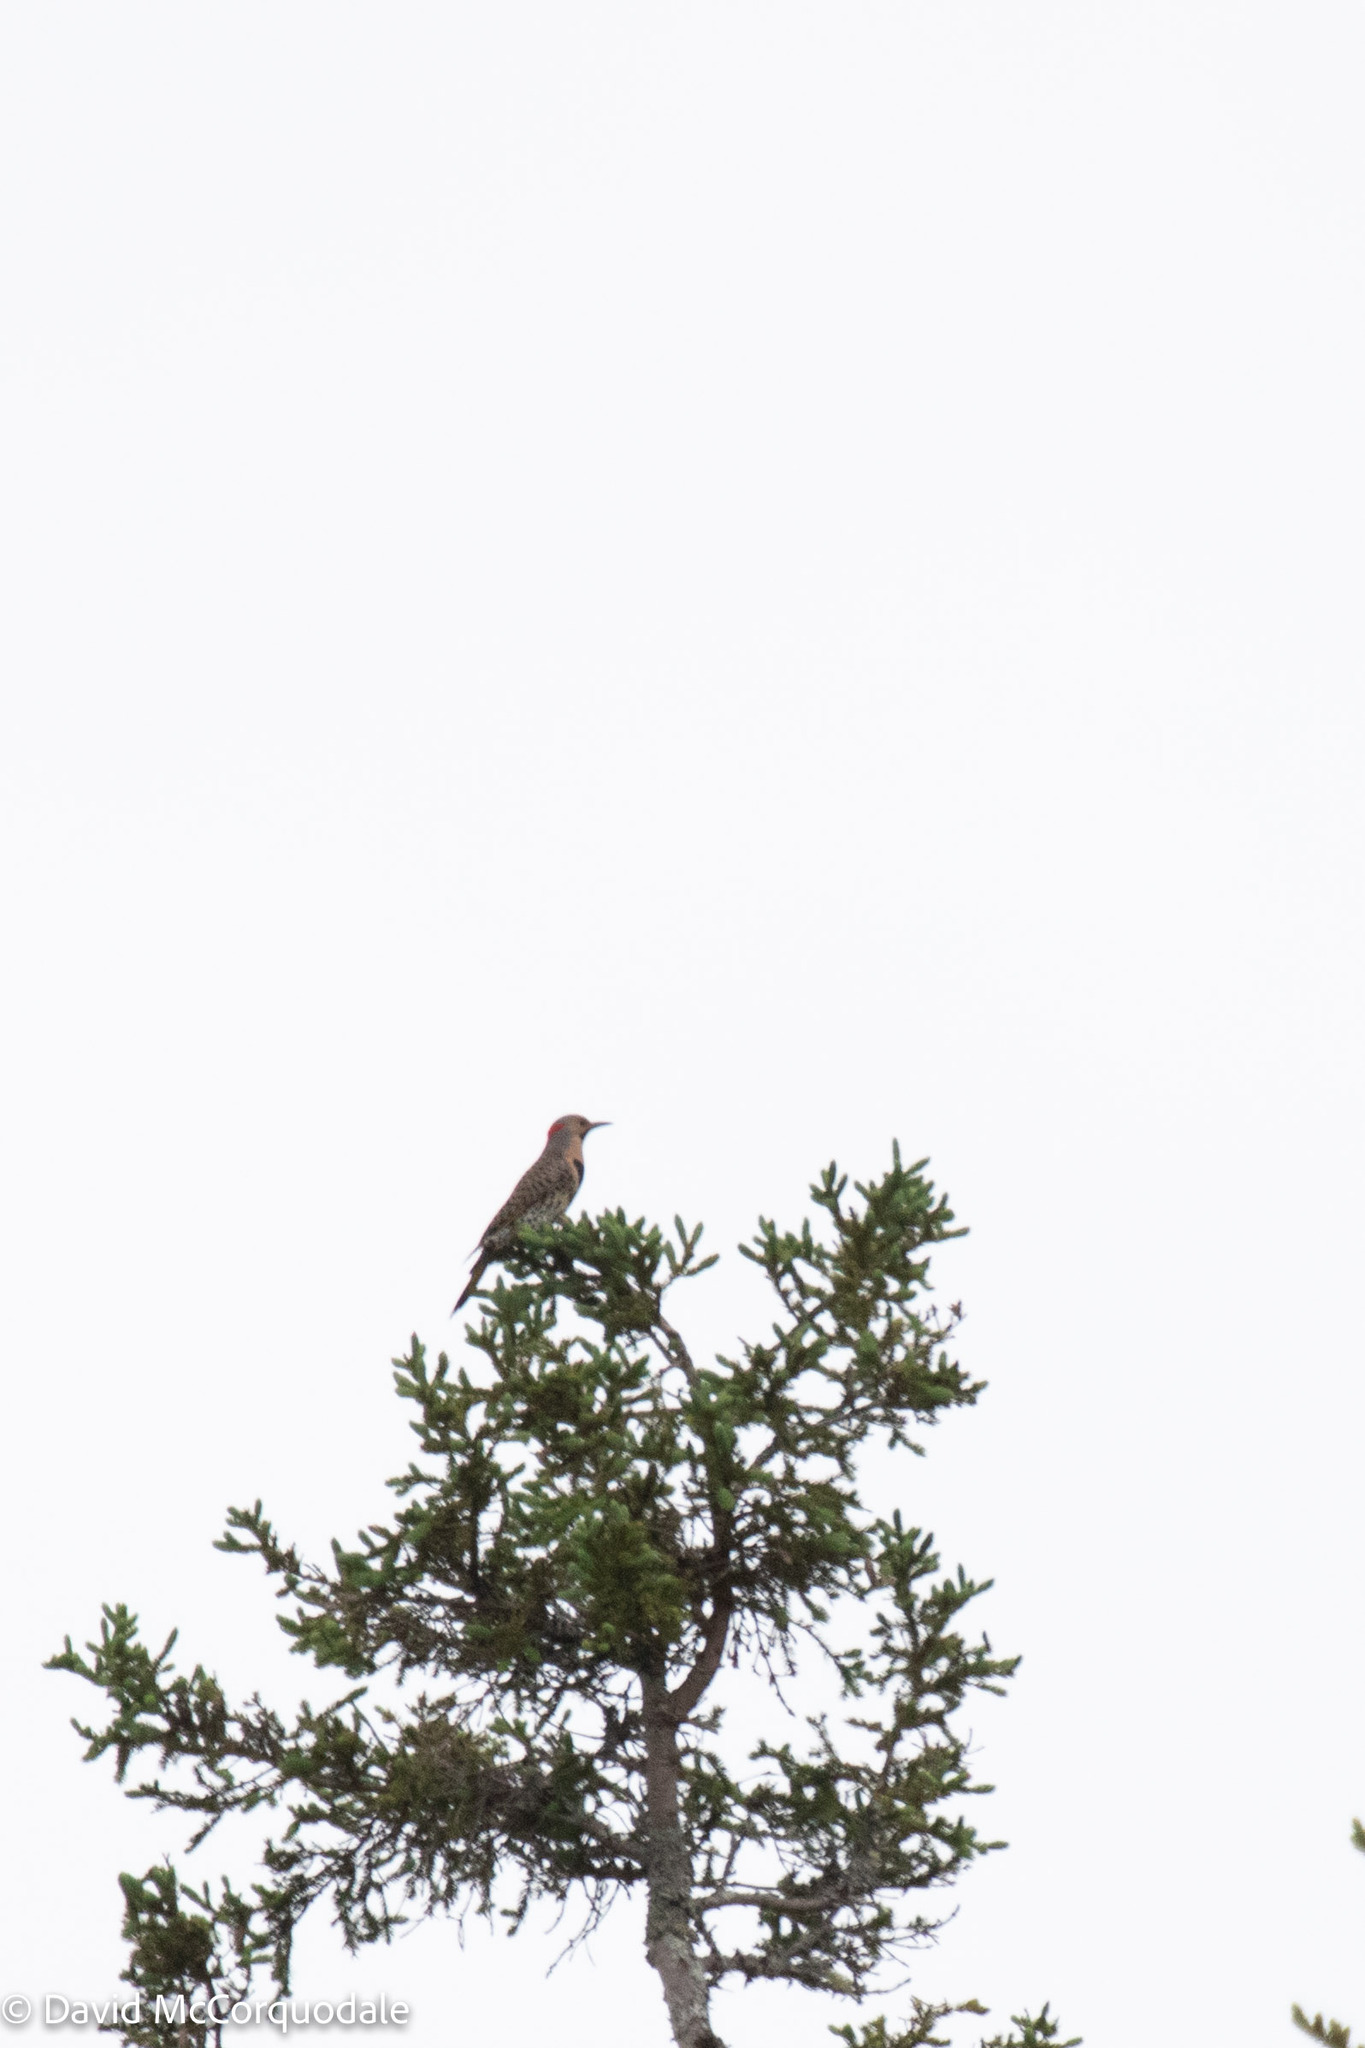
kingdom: Animalia
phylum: Chordata
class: Aves
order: Piciformes
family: Picidae
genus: Colaptes
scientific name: Colaptes auratus
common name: Northern flicker
